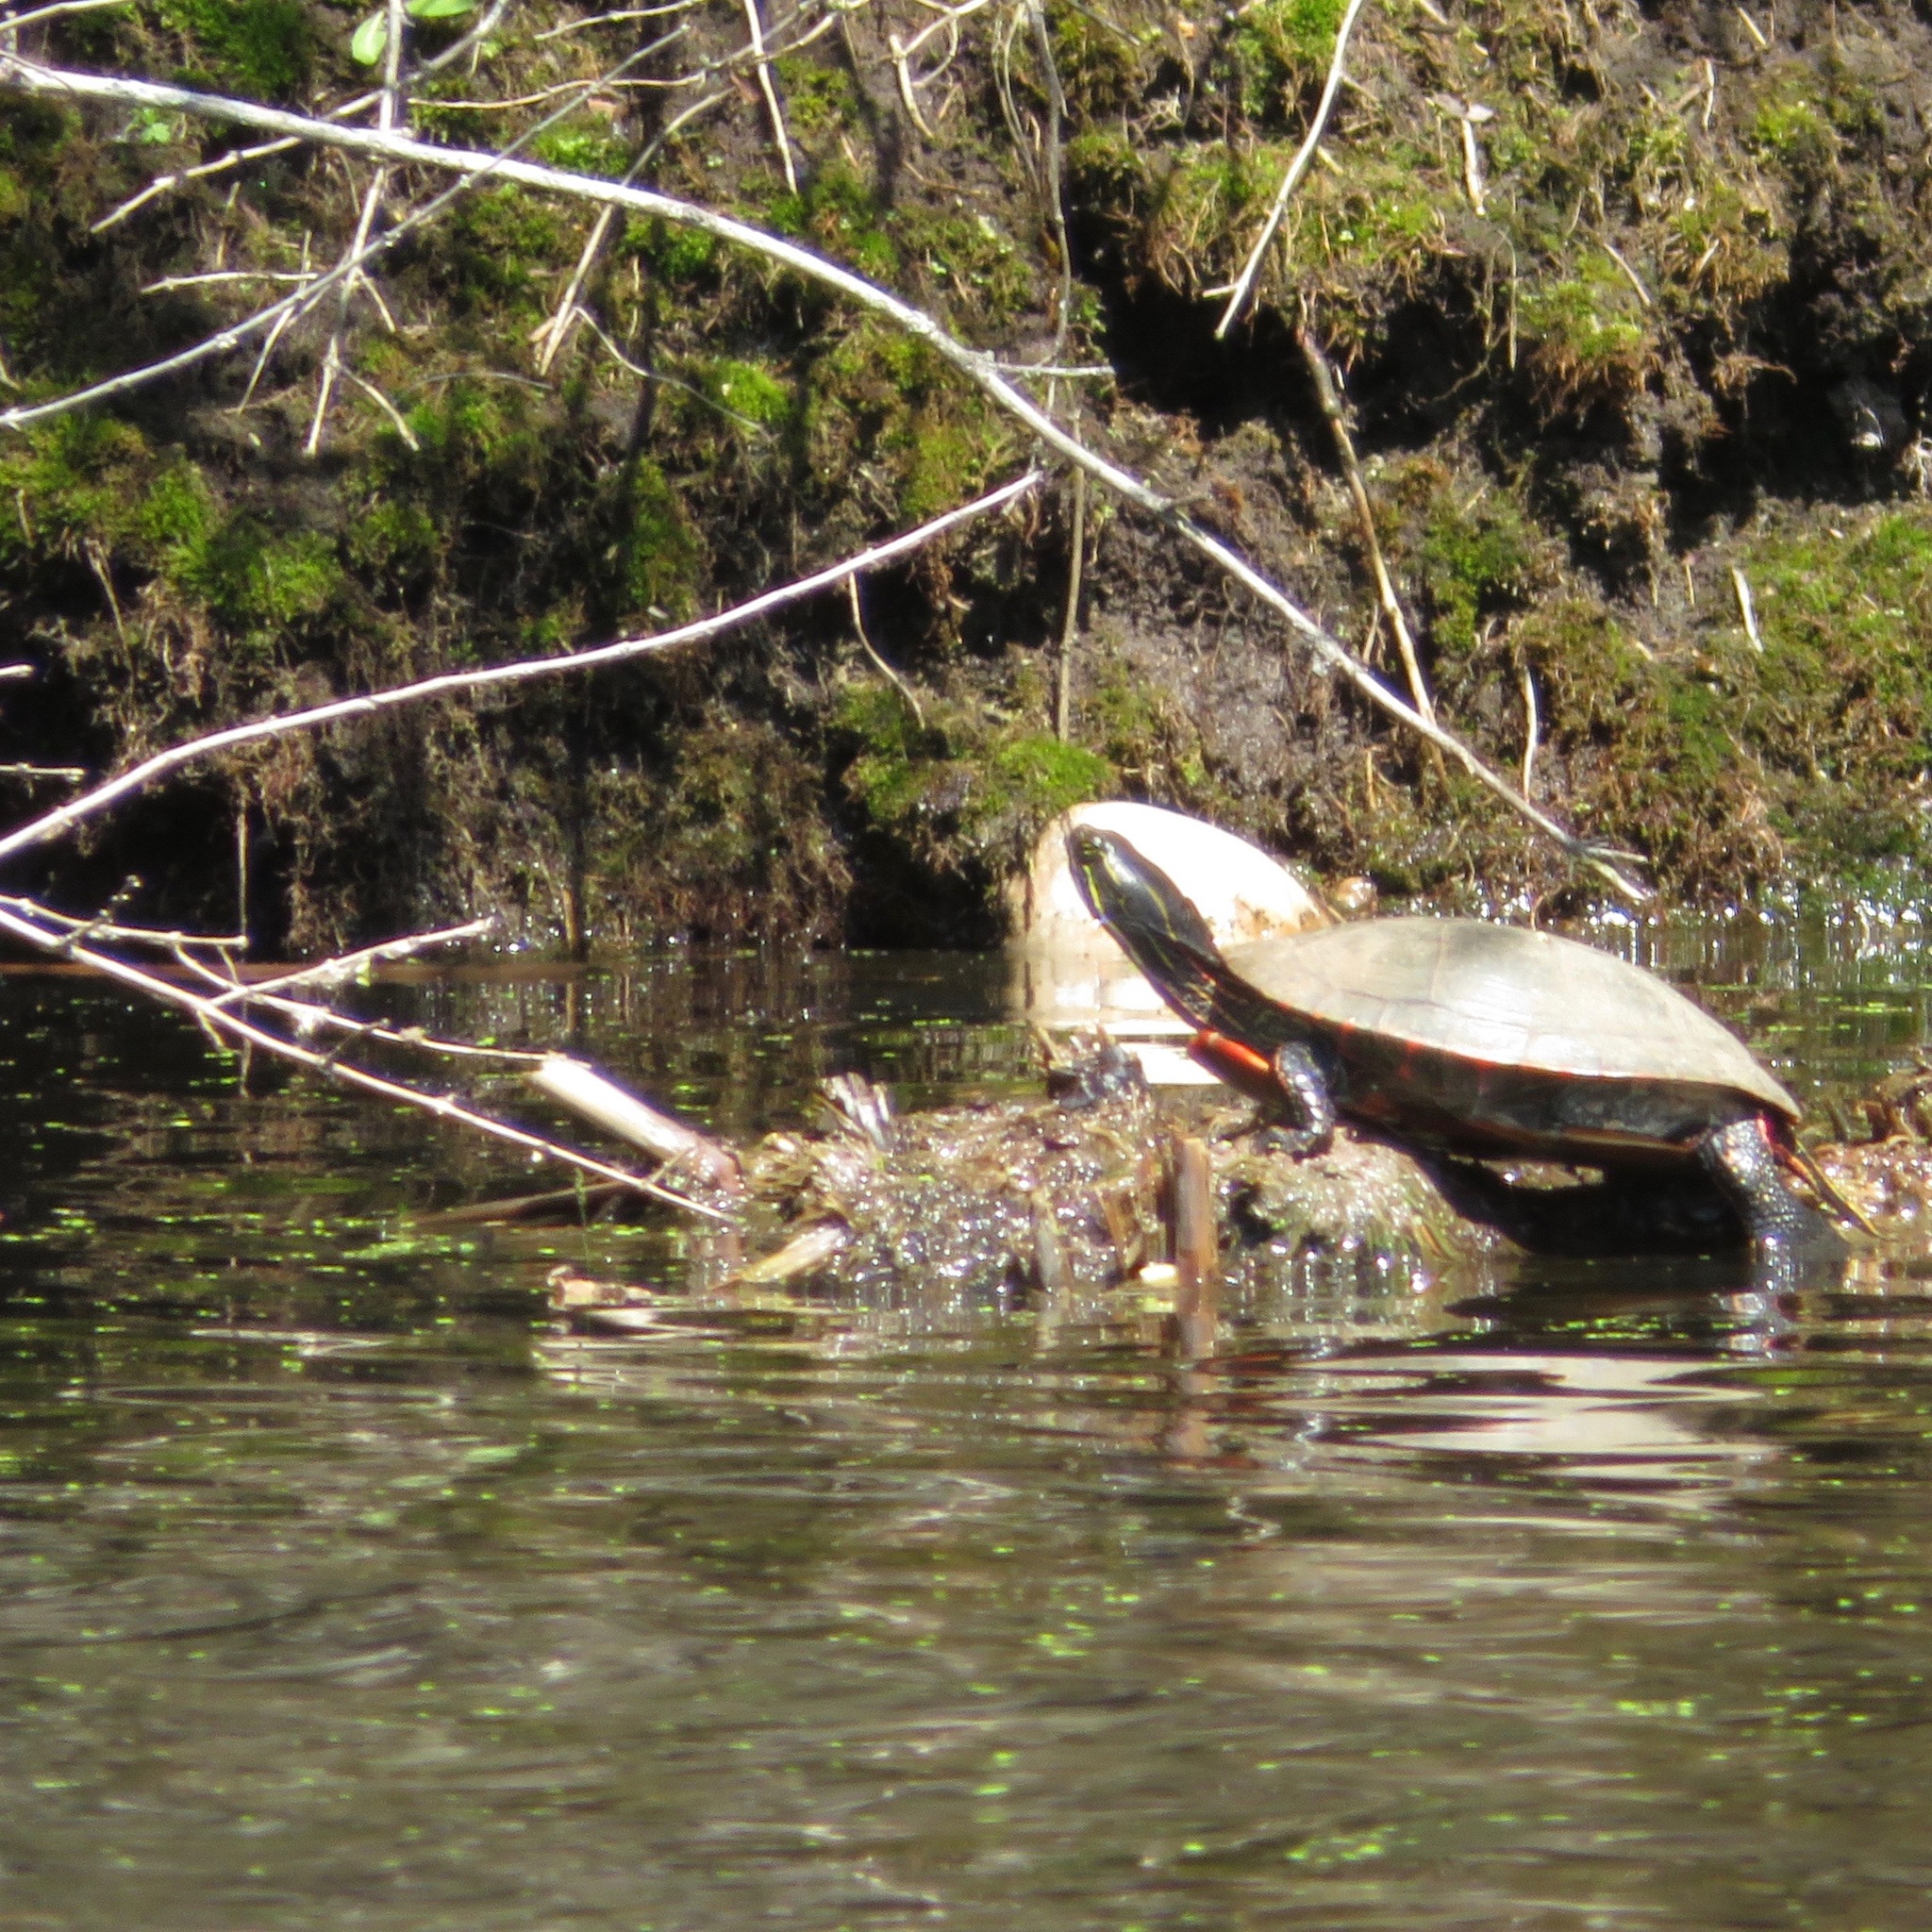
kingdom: Animalia
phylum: Chordata
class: Testudines
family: Emydidae
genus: Chrysemys
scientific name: Chrysemys picta
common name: Painted turtle
